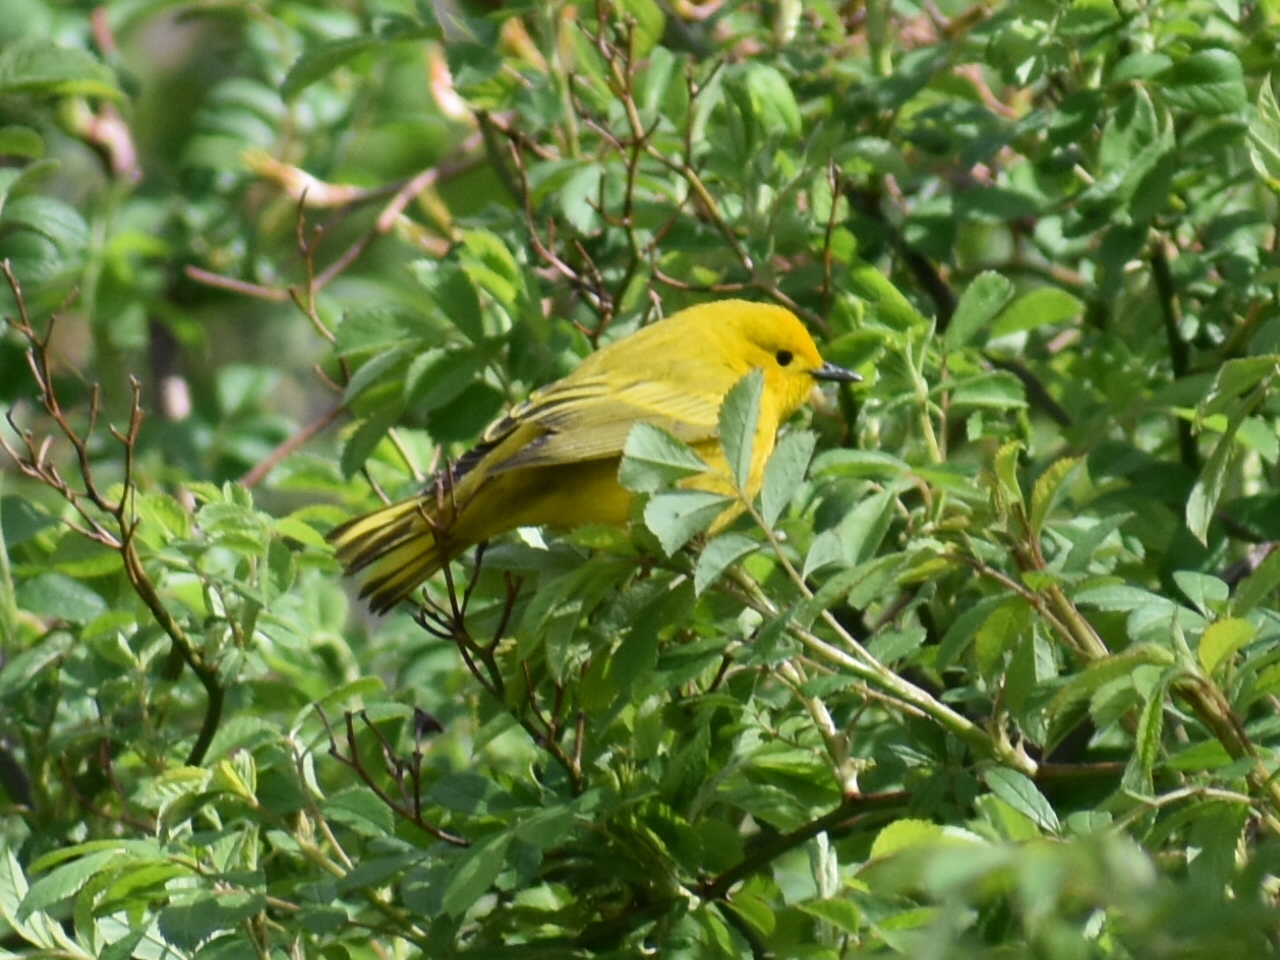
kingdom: Animalia
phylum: Chordata
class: Aves
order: Passeriformes
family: Parulidae
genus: Setophaga
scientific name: Setophaga petechia
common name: Yellow warbler
